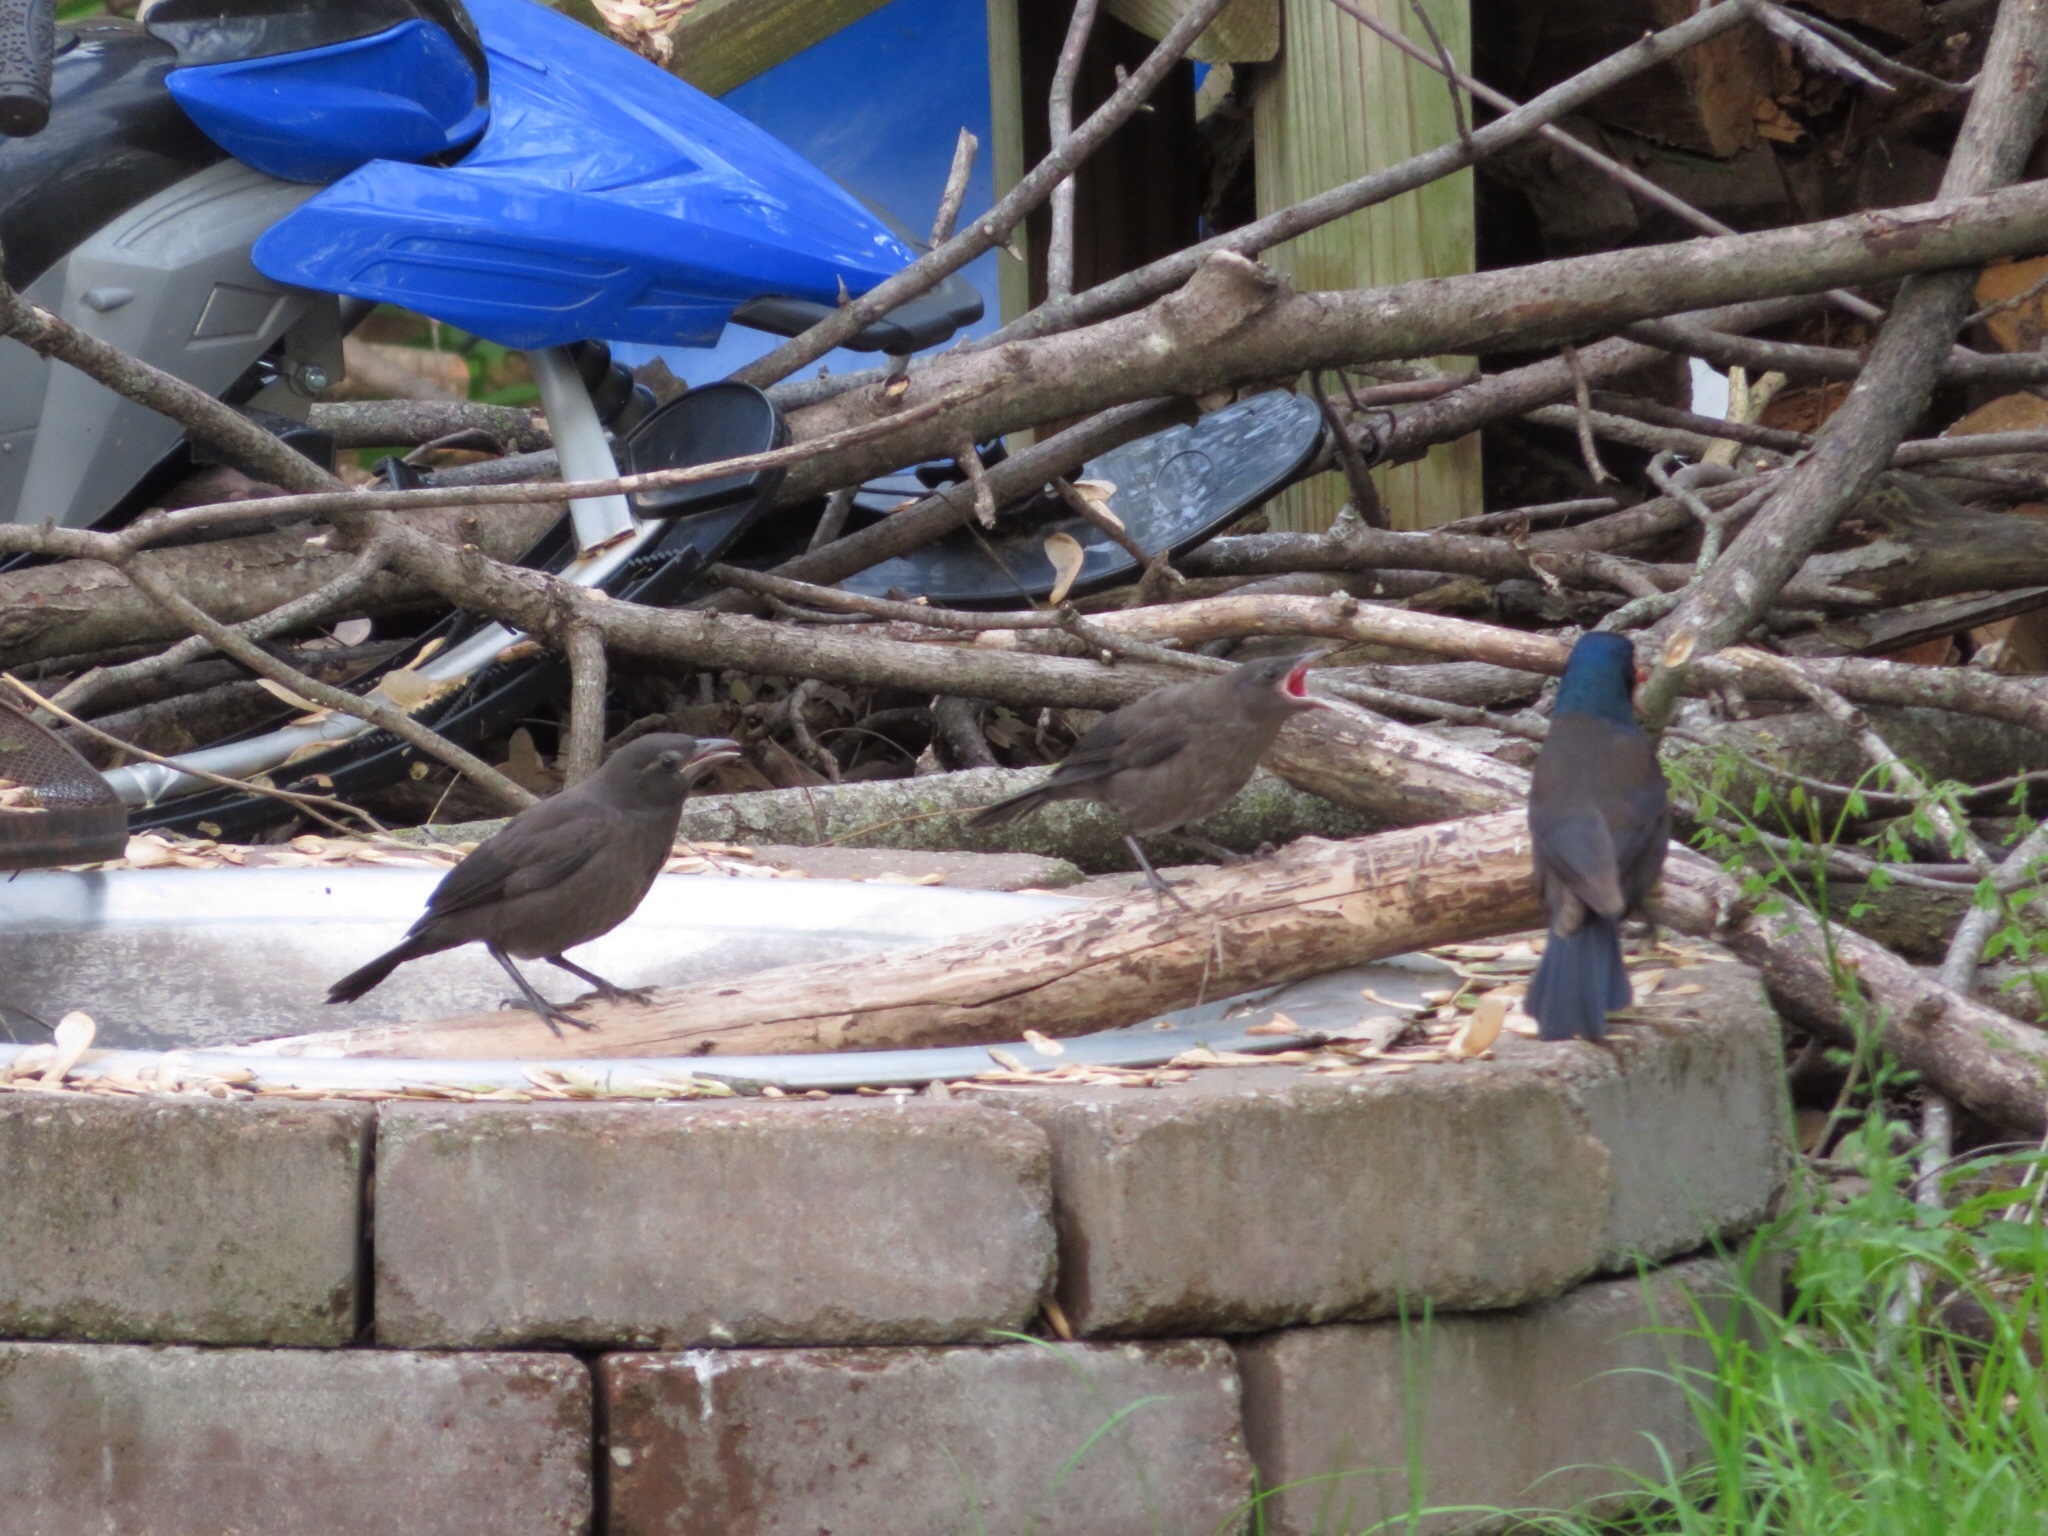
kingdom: Animalia
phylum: Chordata
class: Aves
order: Passeriformes
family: Icteridae
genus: Quiscalus
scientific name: Quiscalus quiscula
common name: Common grackle
